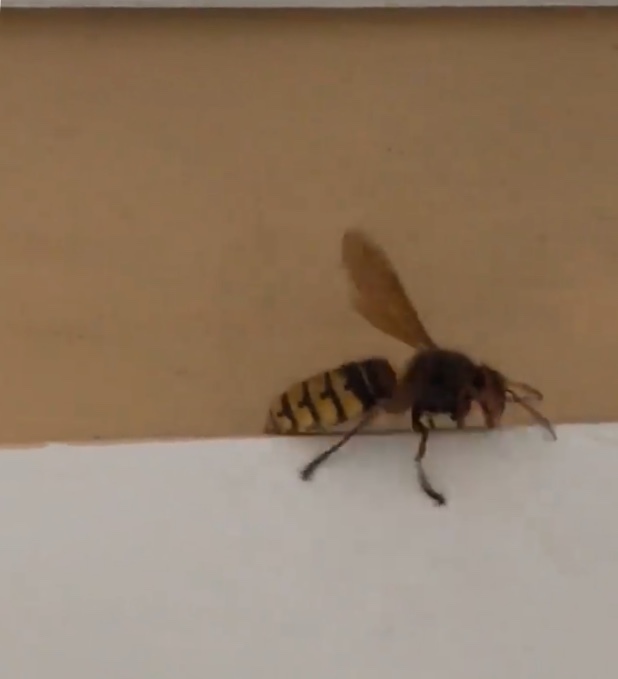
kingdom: Animalia
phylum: Arthropoda
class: Insecta
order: Hymenoptera
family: Vespidae
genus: Vespa
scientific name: Vespa crabro
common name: Hornet
